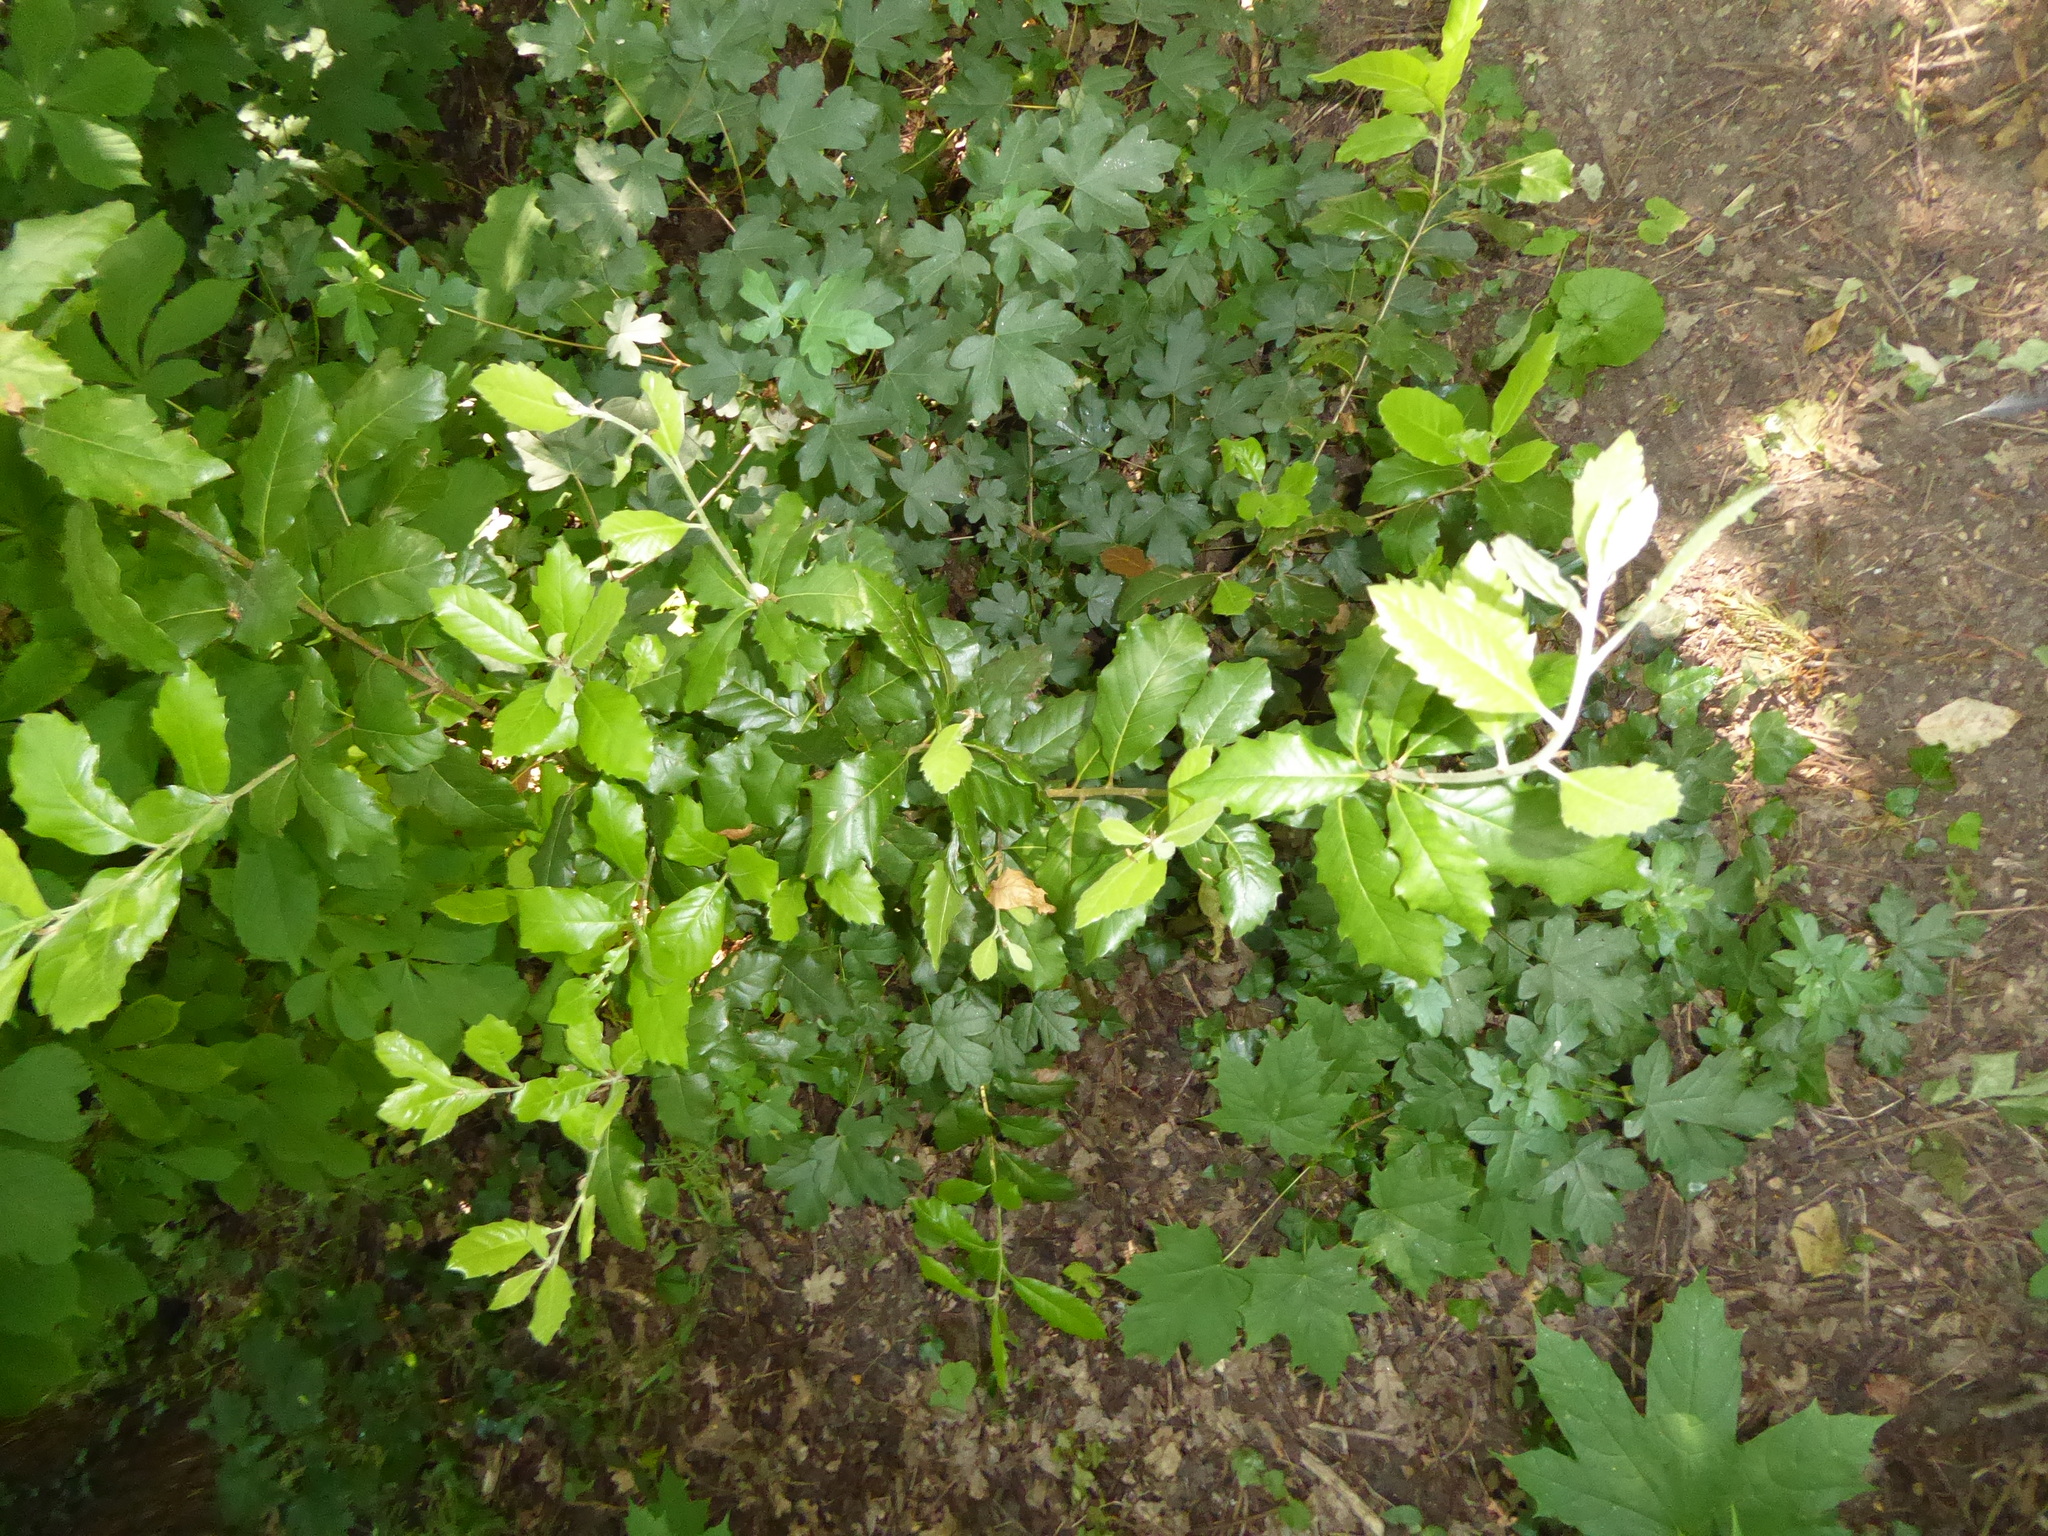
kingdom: Plantae
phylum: Tracheophyta
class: Magnoliopsida
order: Fagales
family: Fagaceae
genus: Quercus
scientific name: Quercus ilex
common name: Evergreen oak
